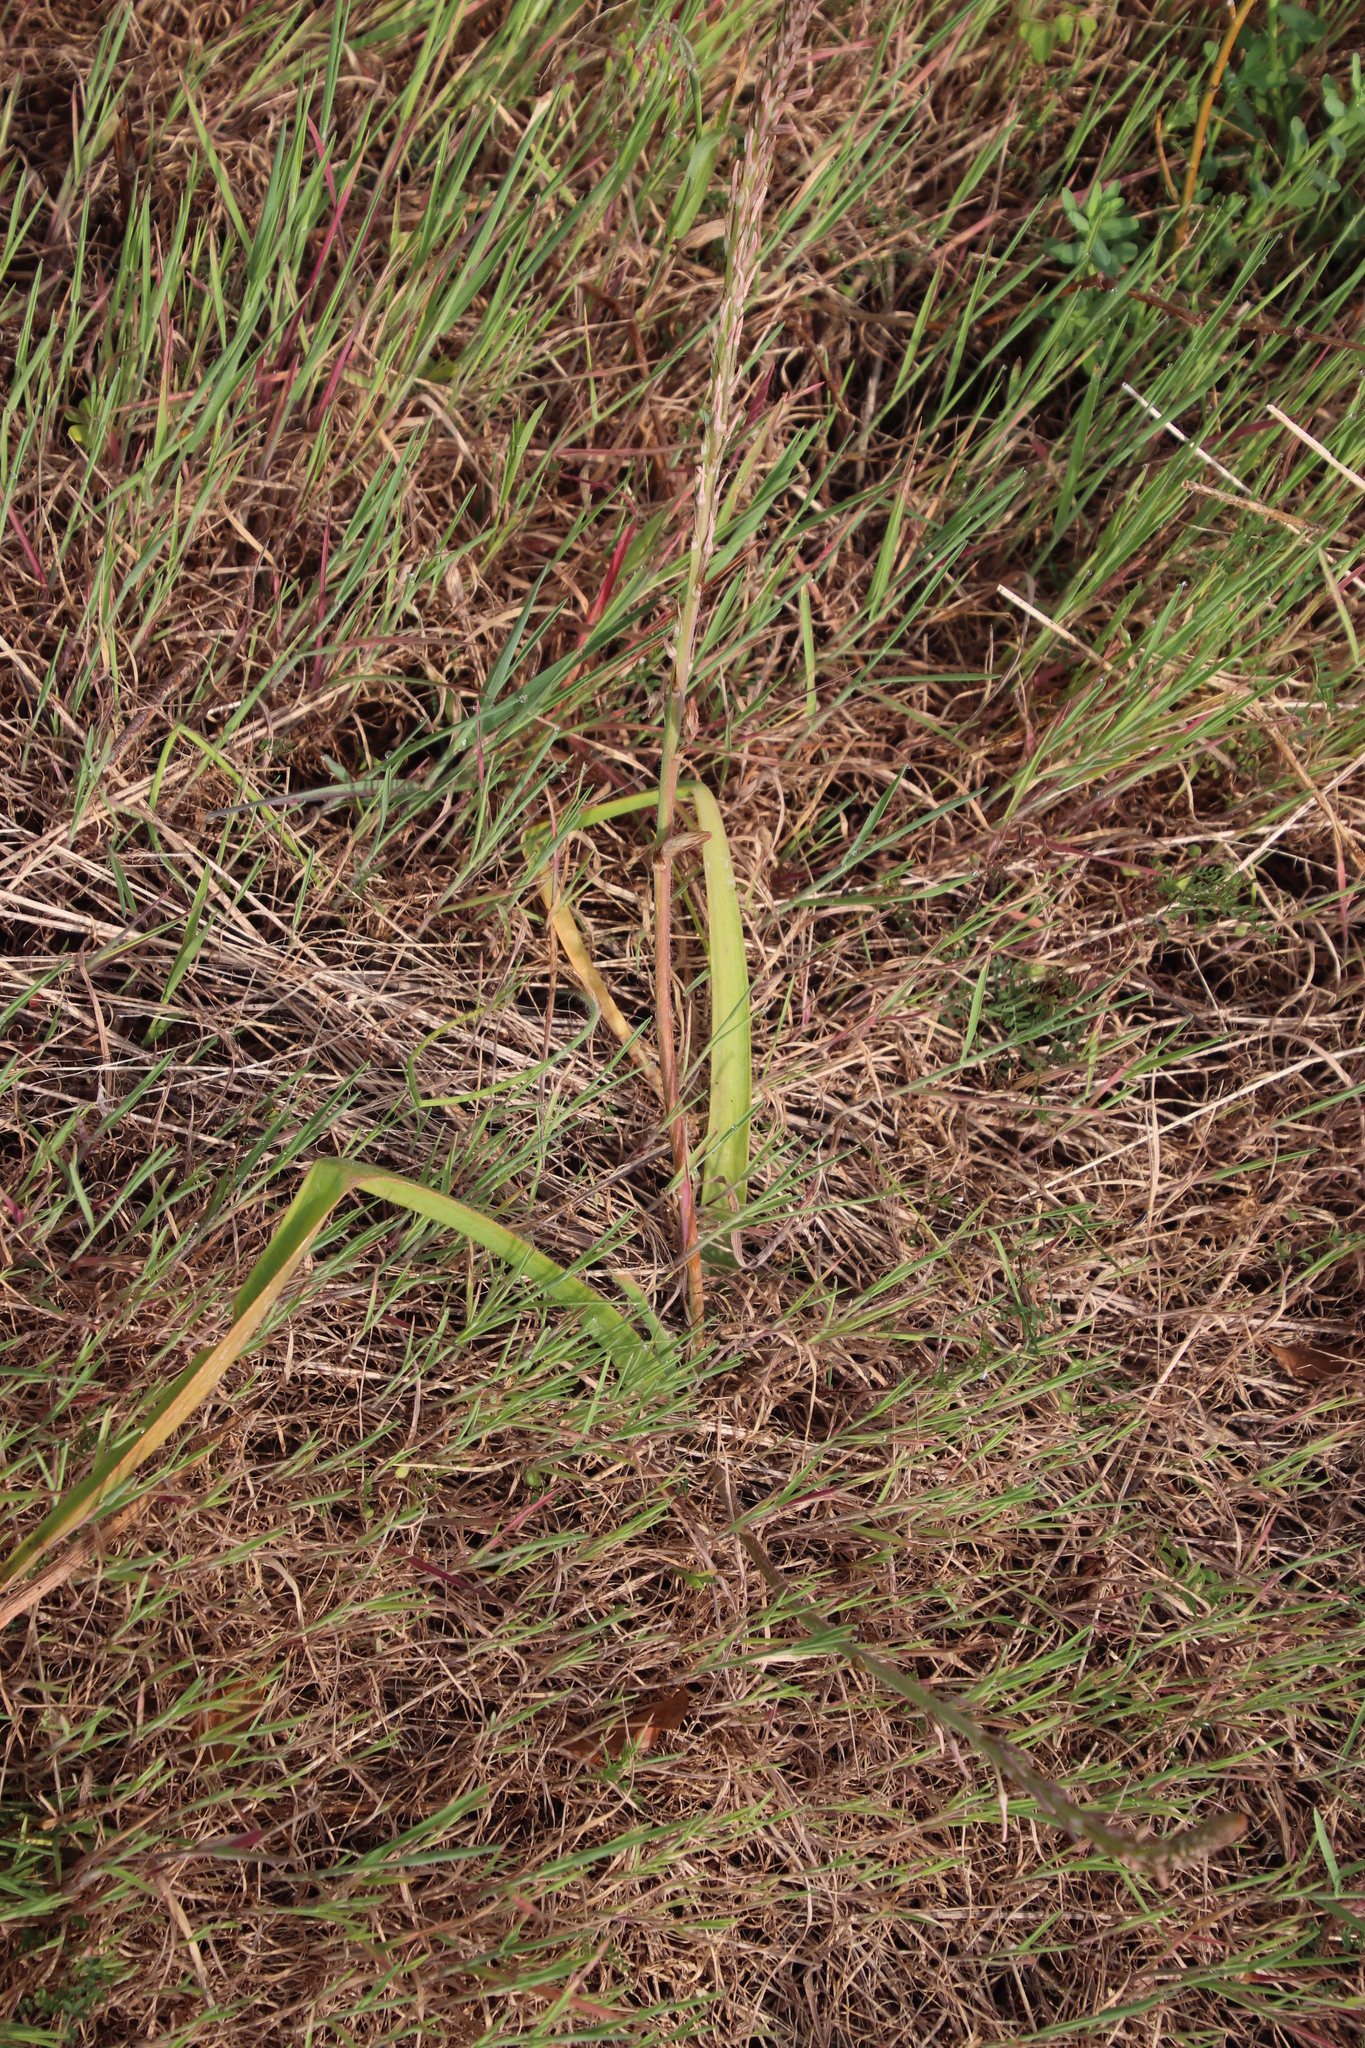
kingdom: Plantae
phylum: Tracheophyta
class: Liliopsida
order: Asparagales
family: Asphodelaceae
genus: Trachyandra
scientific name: Trachyandra ciliata
